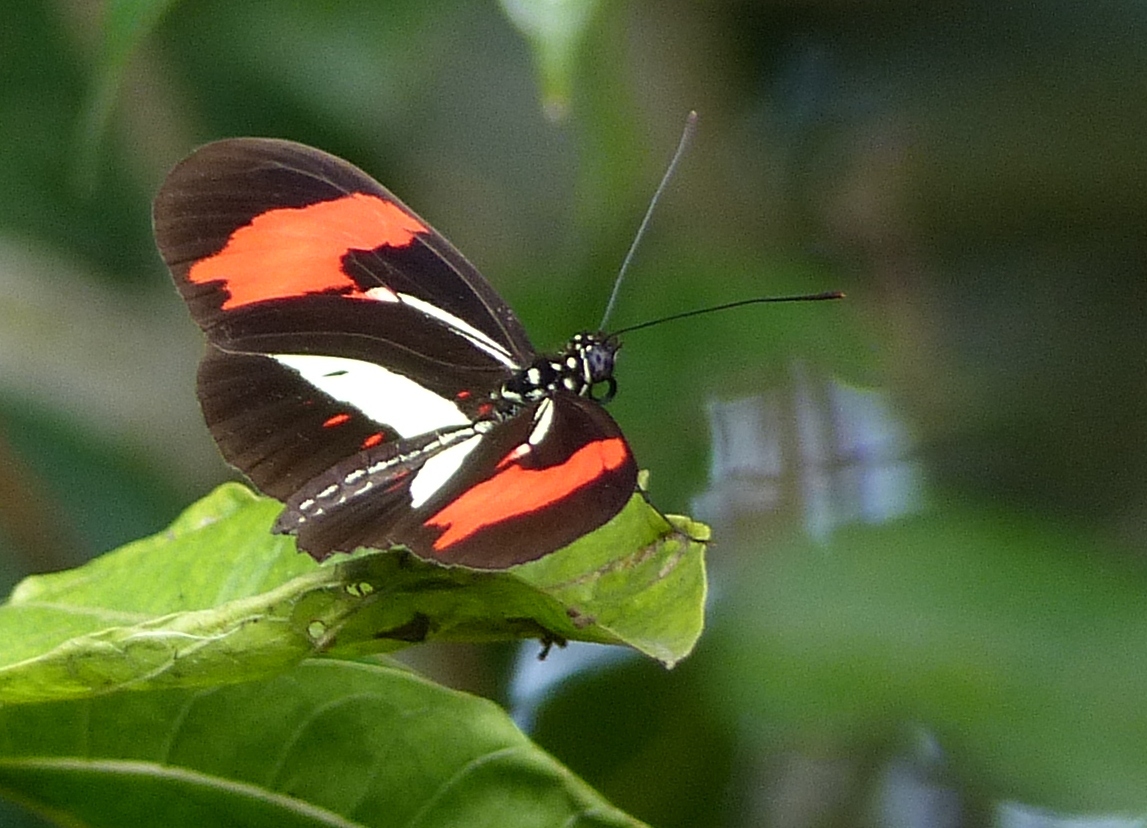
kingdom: Animalia
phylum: Arthropoda
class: Insecta
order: Lepidoptera
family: Nymphalidae
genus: Heliconius
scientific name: Heliconius erato
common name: Common patch longwing
